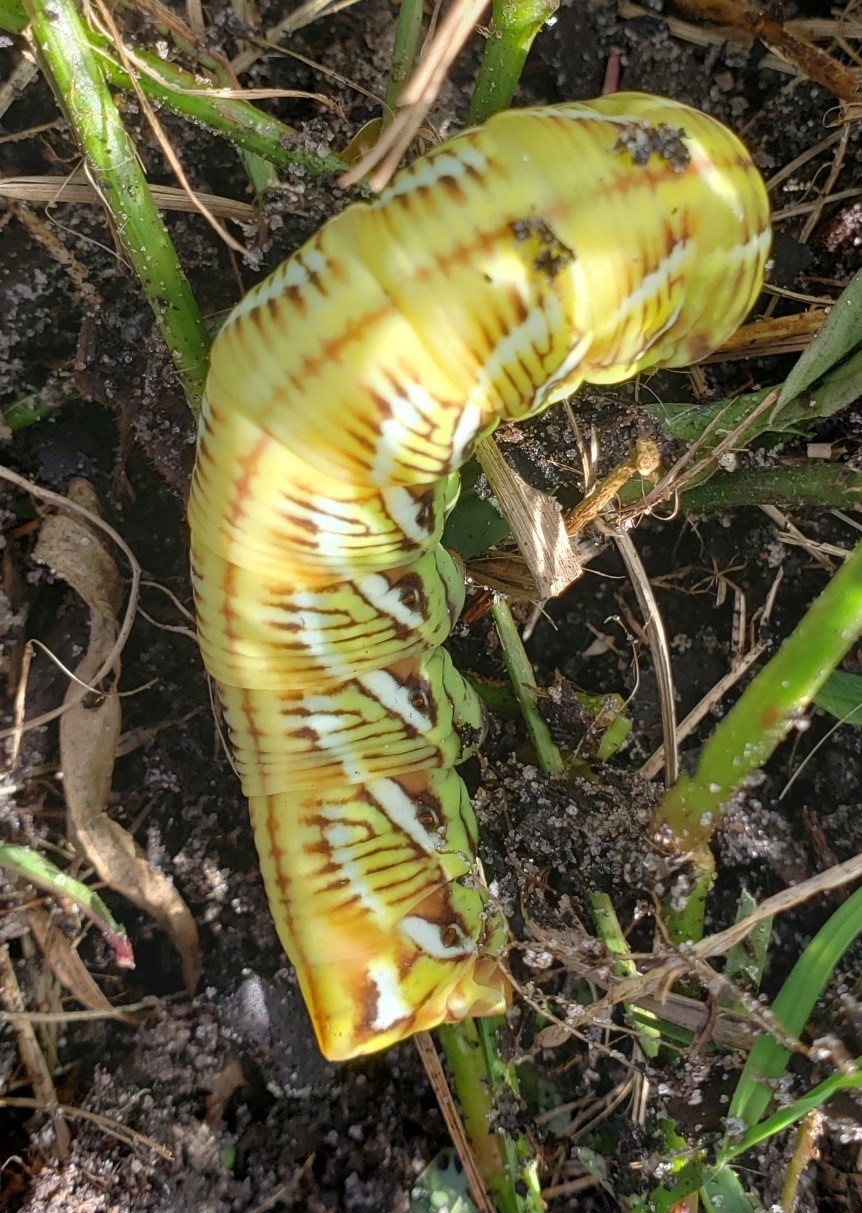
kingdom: Animalia
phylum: Arthropoda
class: Insecta
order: Lepidoptera
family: Sphingidae
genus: Eumorpha
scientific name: Eumorpha fasciatus
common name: Banded sphinx
